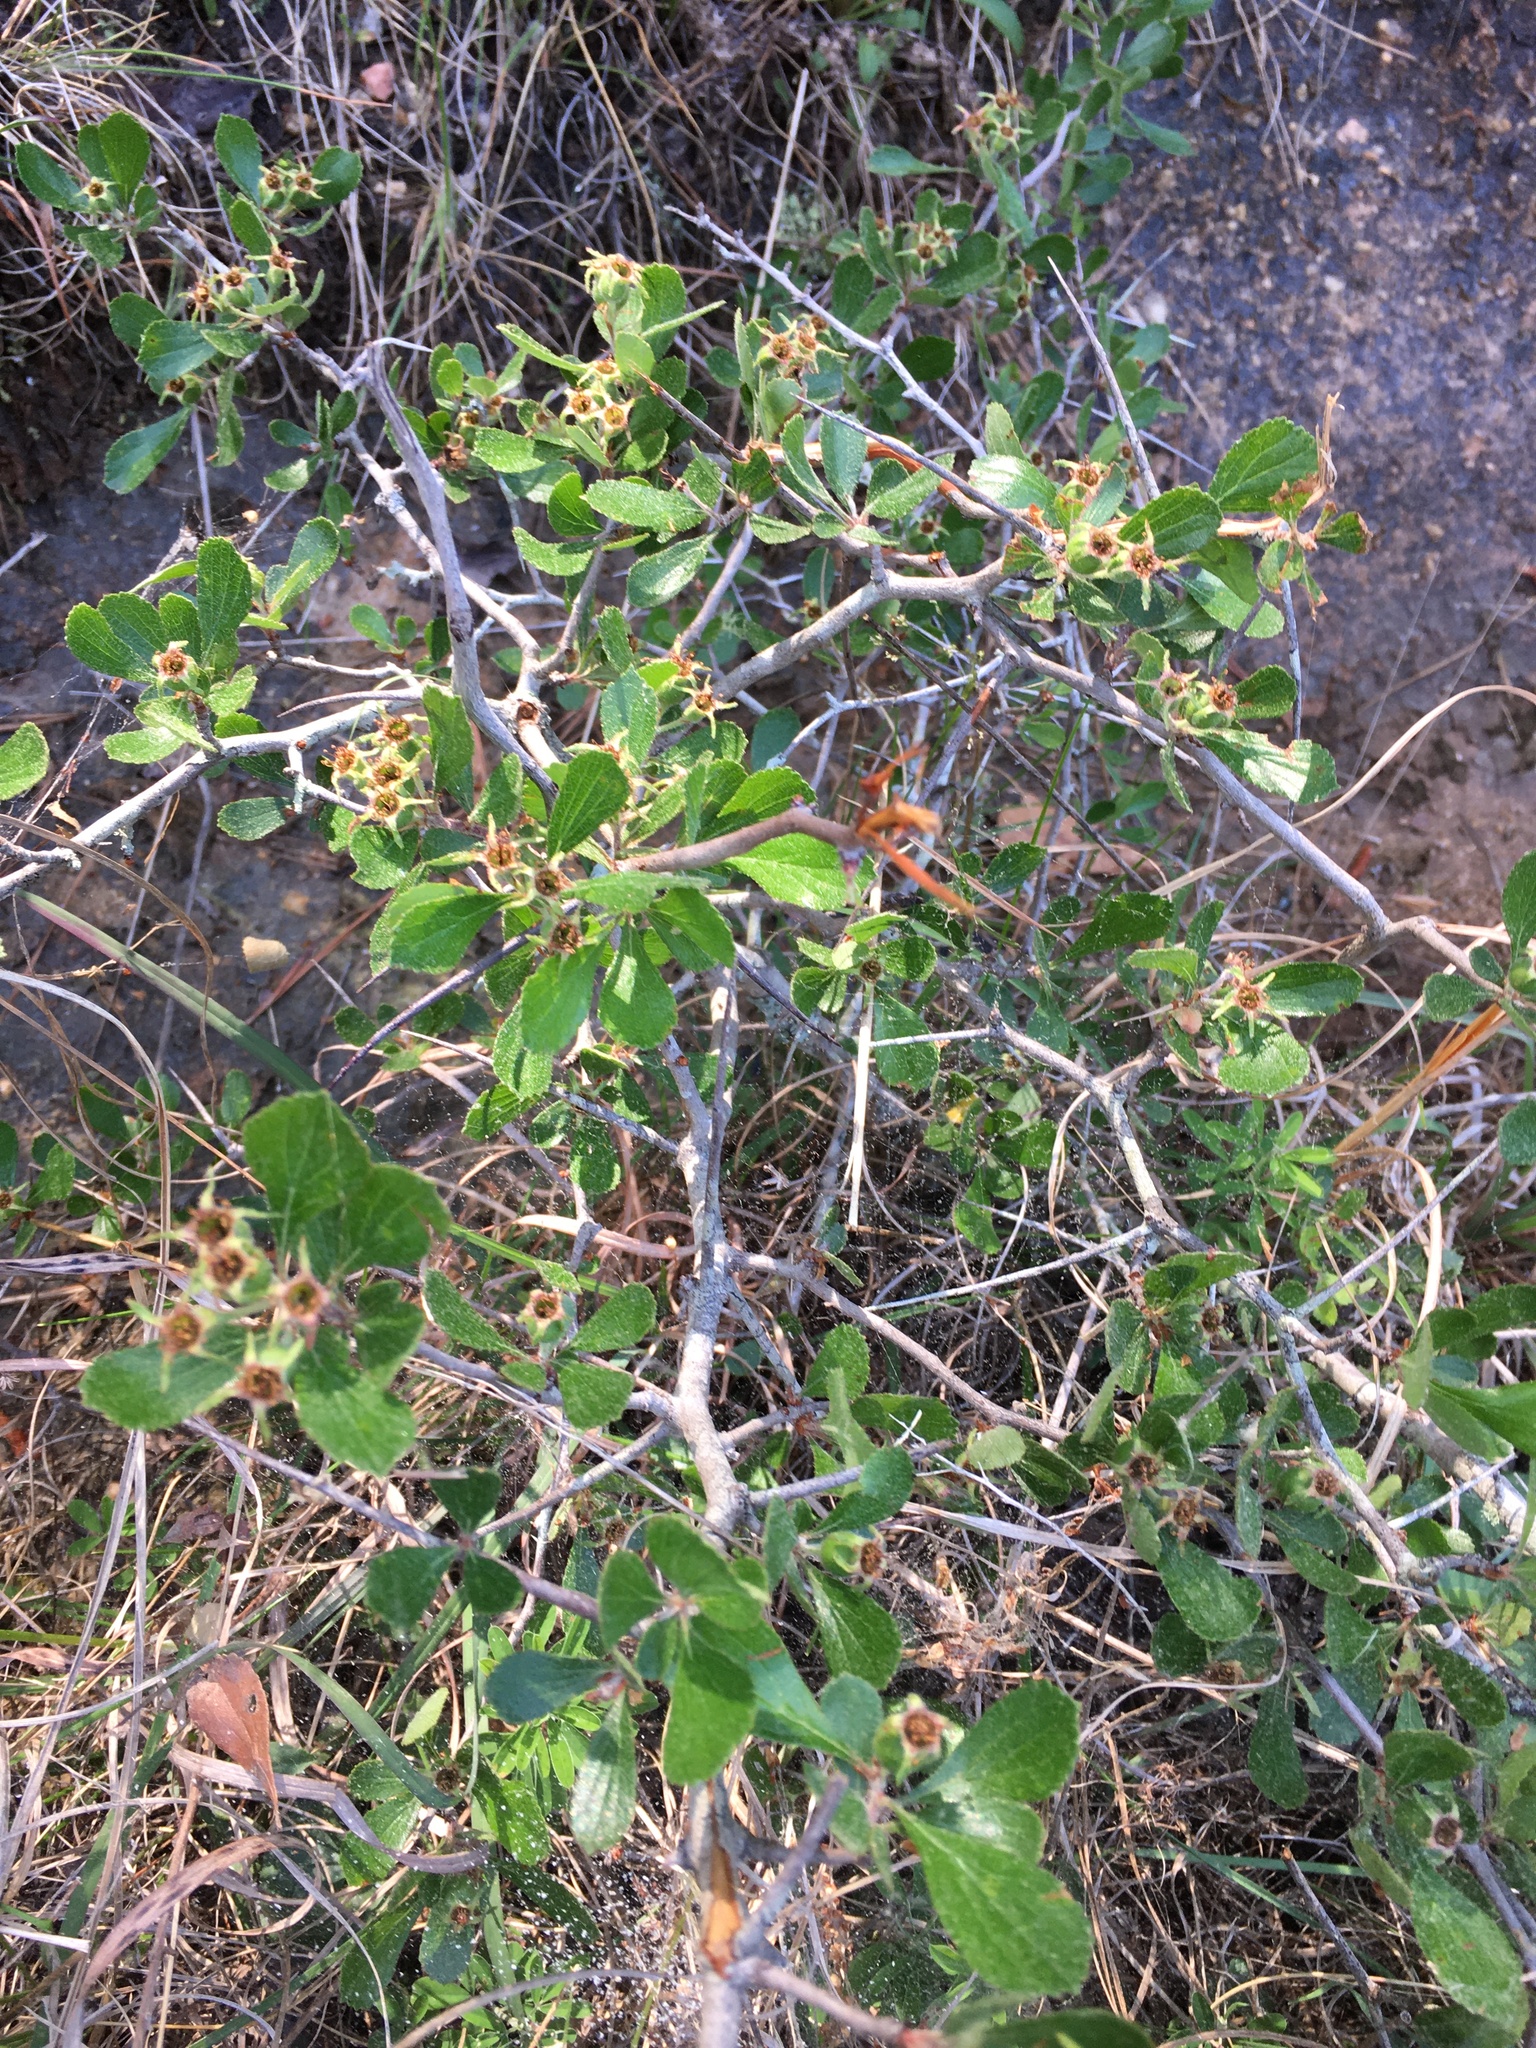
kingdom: Plantae
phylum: Tracheophyta
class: Magnoliopsida
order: Rosales
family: Rosaceae
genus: Crataegus
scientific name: Crataegus uniflora
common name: One-flower hawthorn
